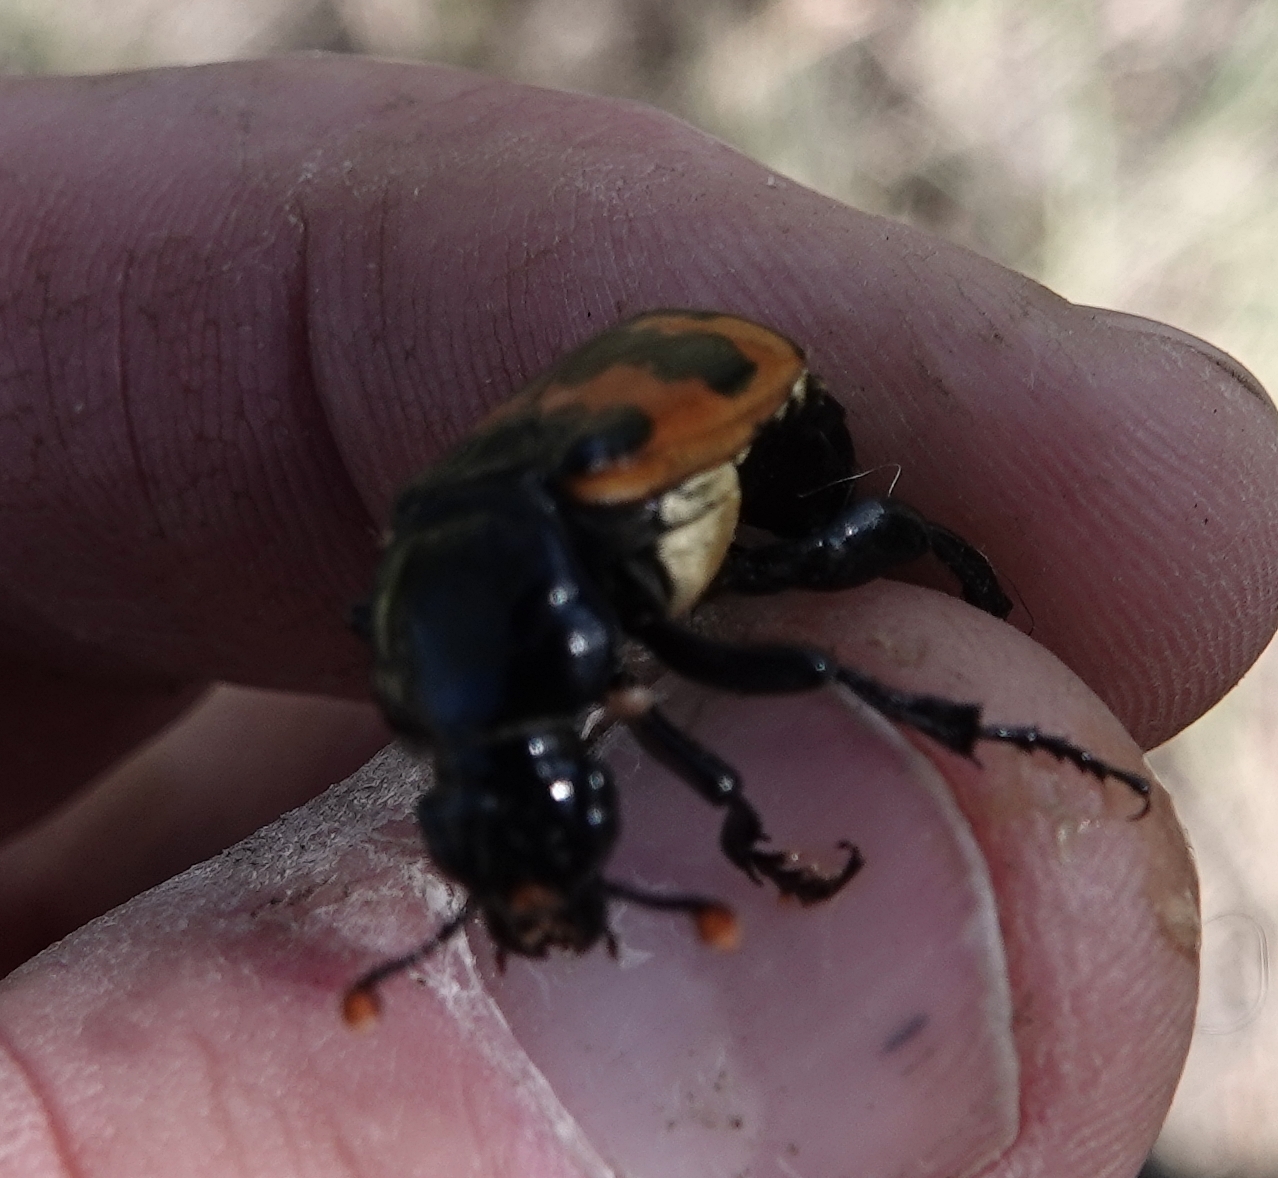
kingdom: Animalia
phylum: Arthropoda
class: Insecta
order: Coleoptera
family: Staphylinidae
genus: Nicrophorus
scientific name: Nicrophorus marginatus
